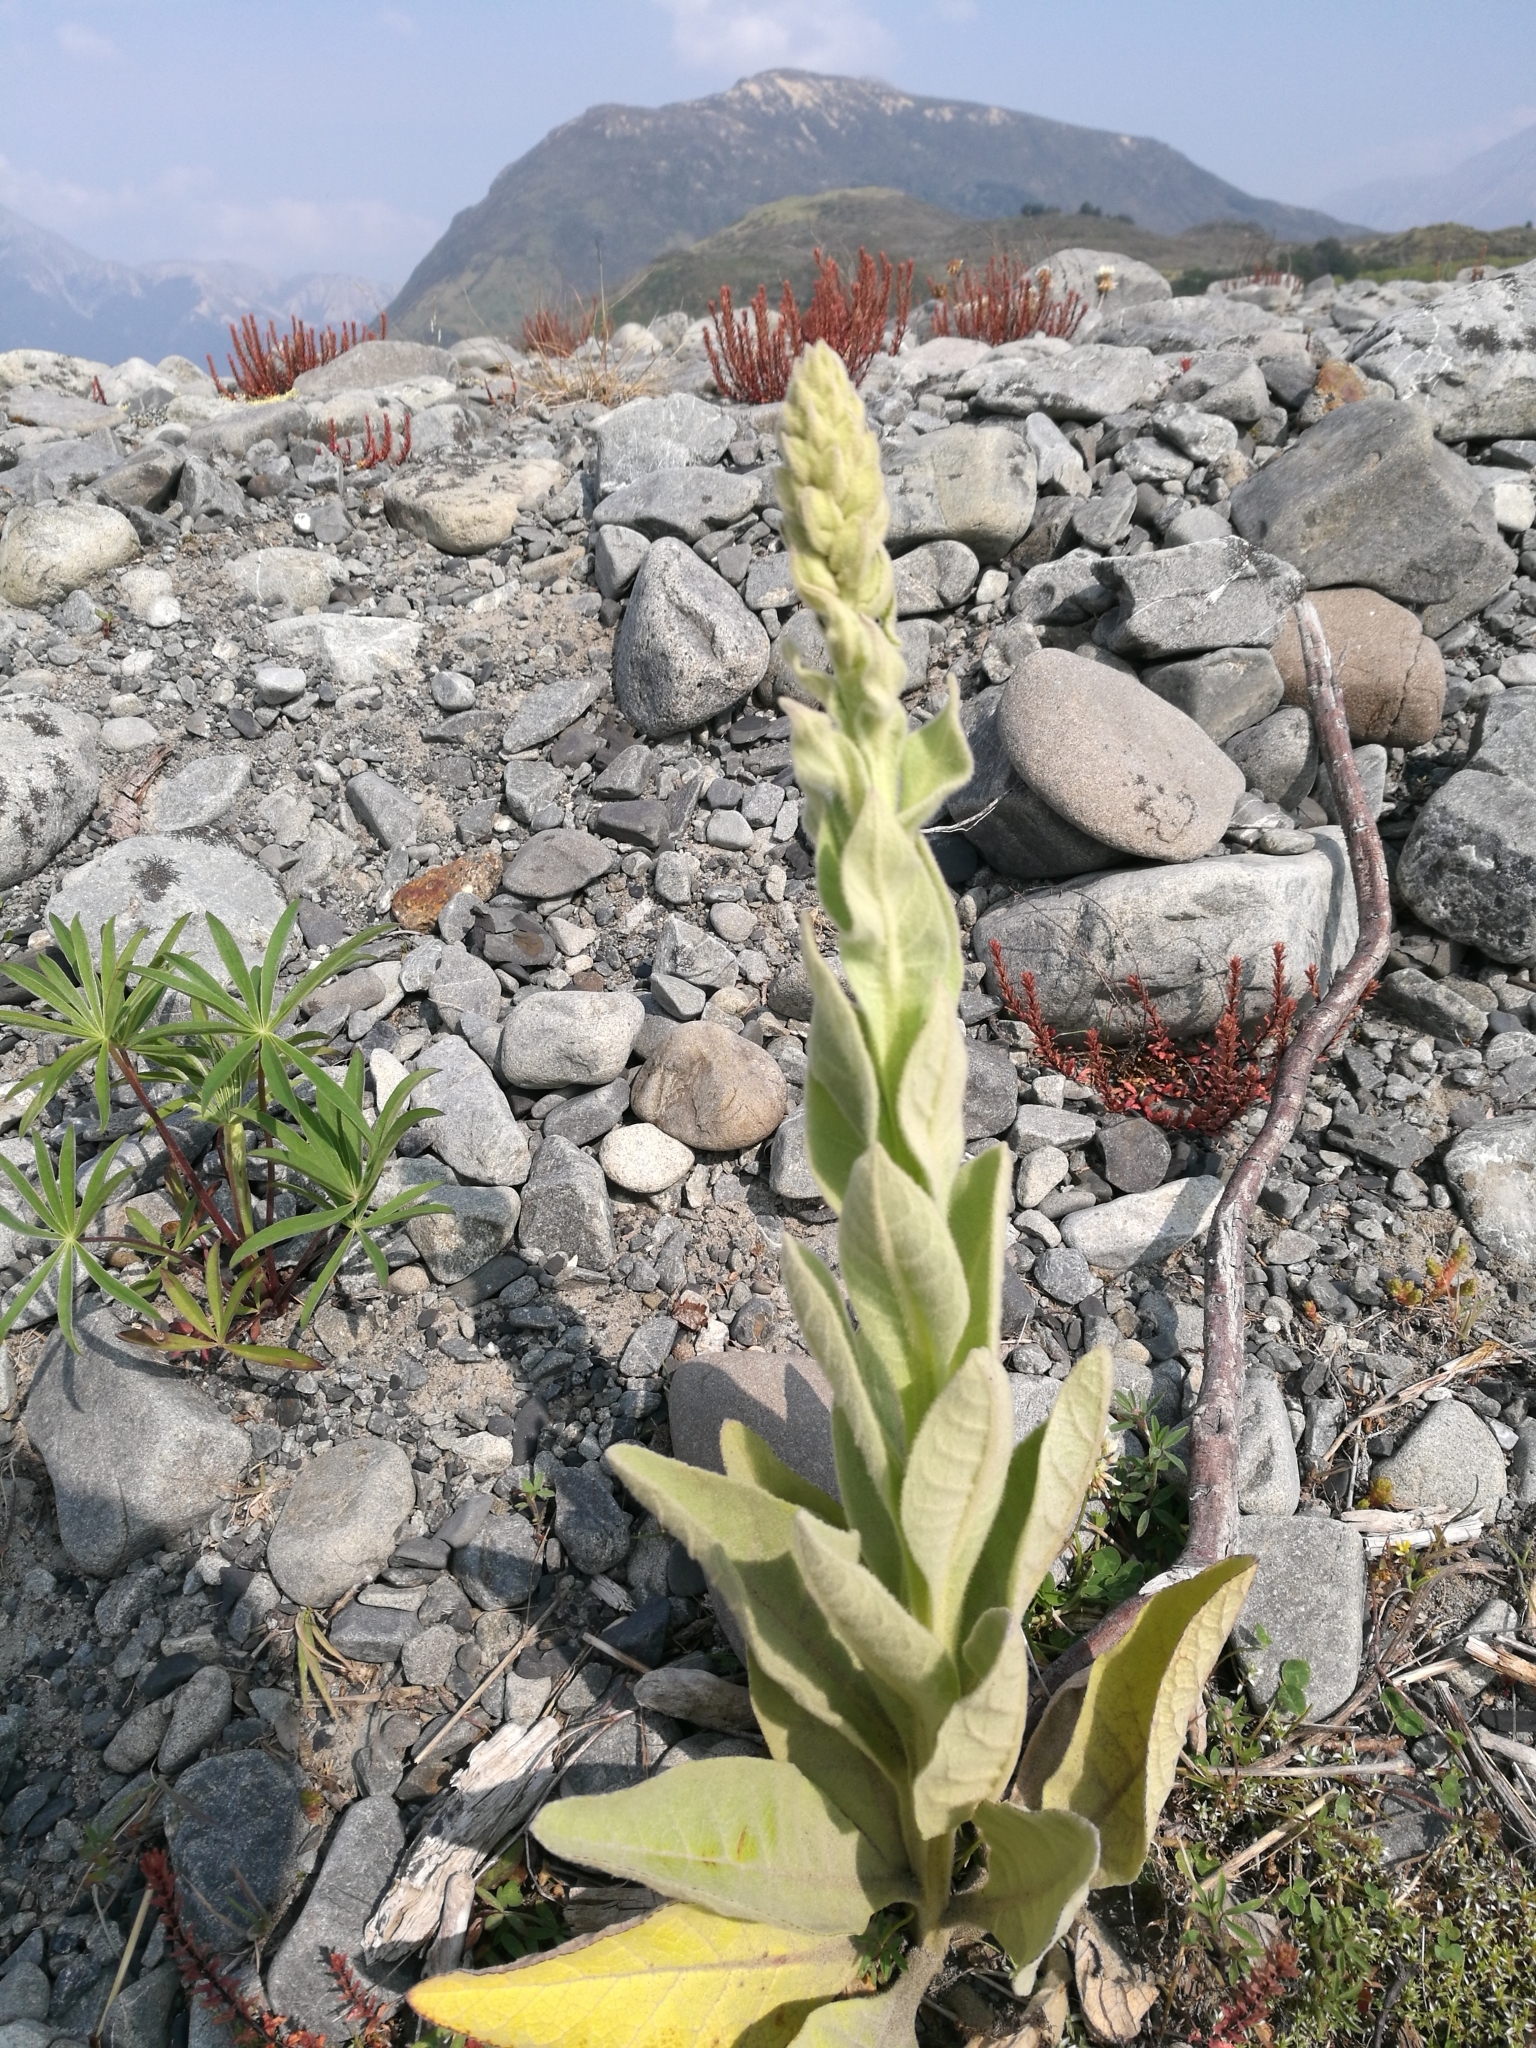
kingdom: Plantae
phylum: Tracheophyta
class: Magnoliopsida
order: Lamiales
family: Scrophulariaceae
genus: Verbascum
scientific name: Verbascum thapsus
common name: Common mullein
